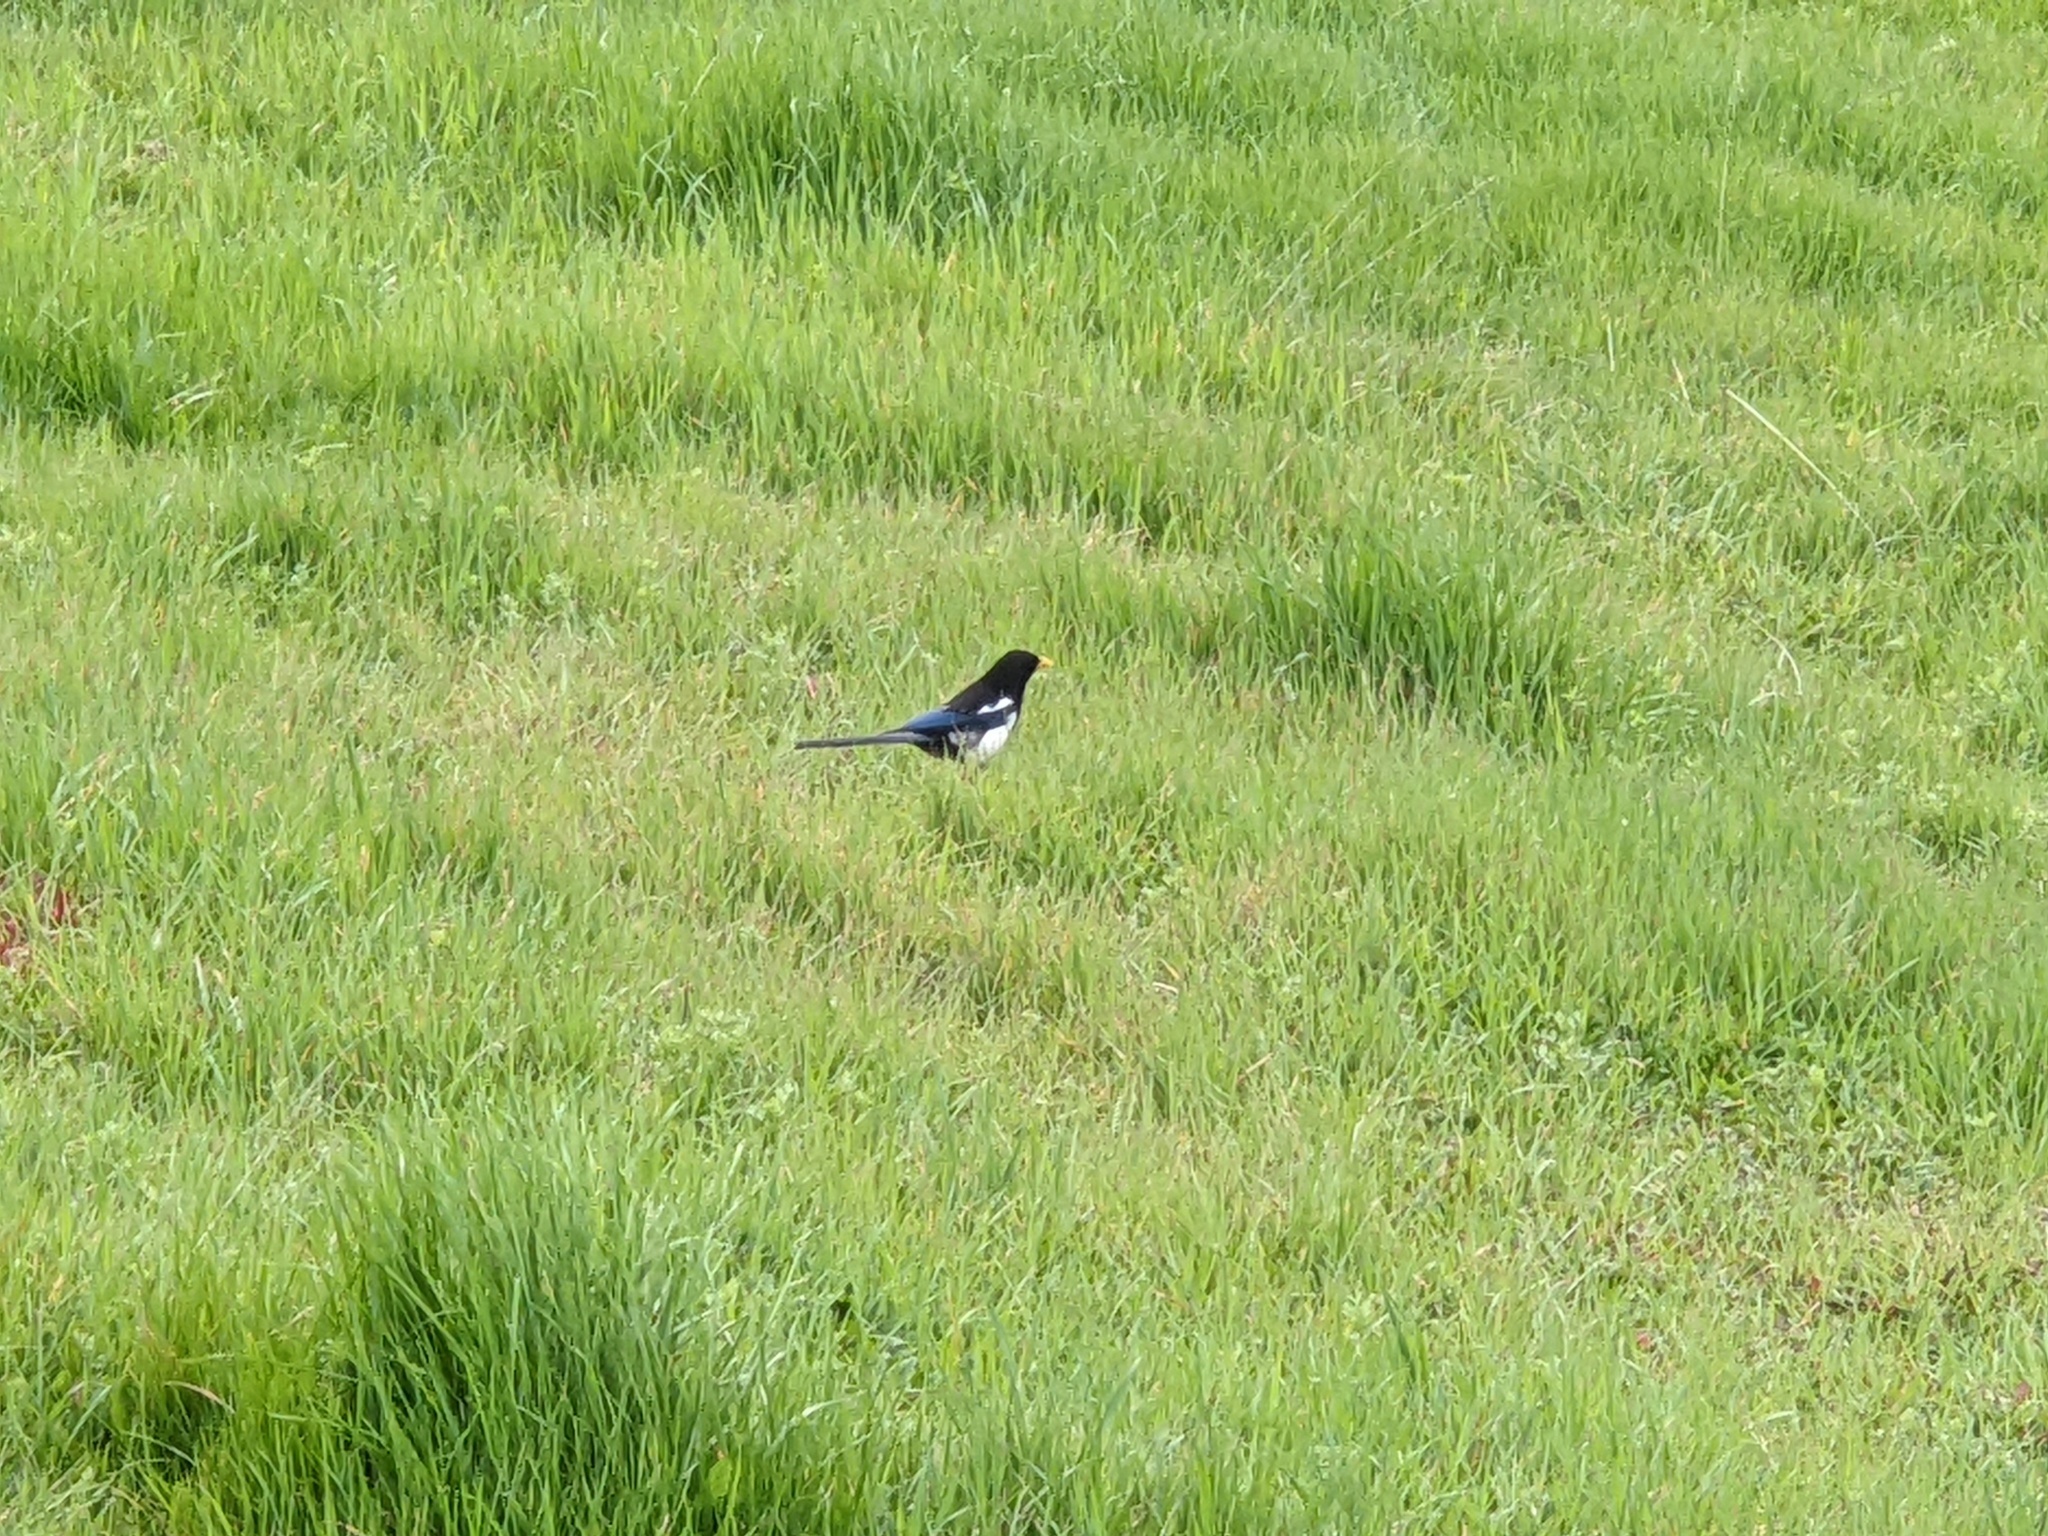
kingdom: Animalia
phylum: Chordata
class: Aves
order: Passeriformes
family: Corvidae
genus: Pica
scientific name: Pica nuttalli
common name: Yellow-billed magpie
